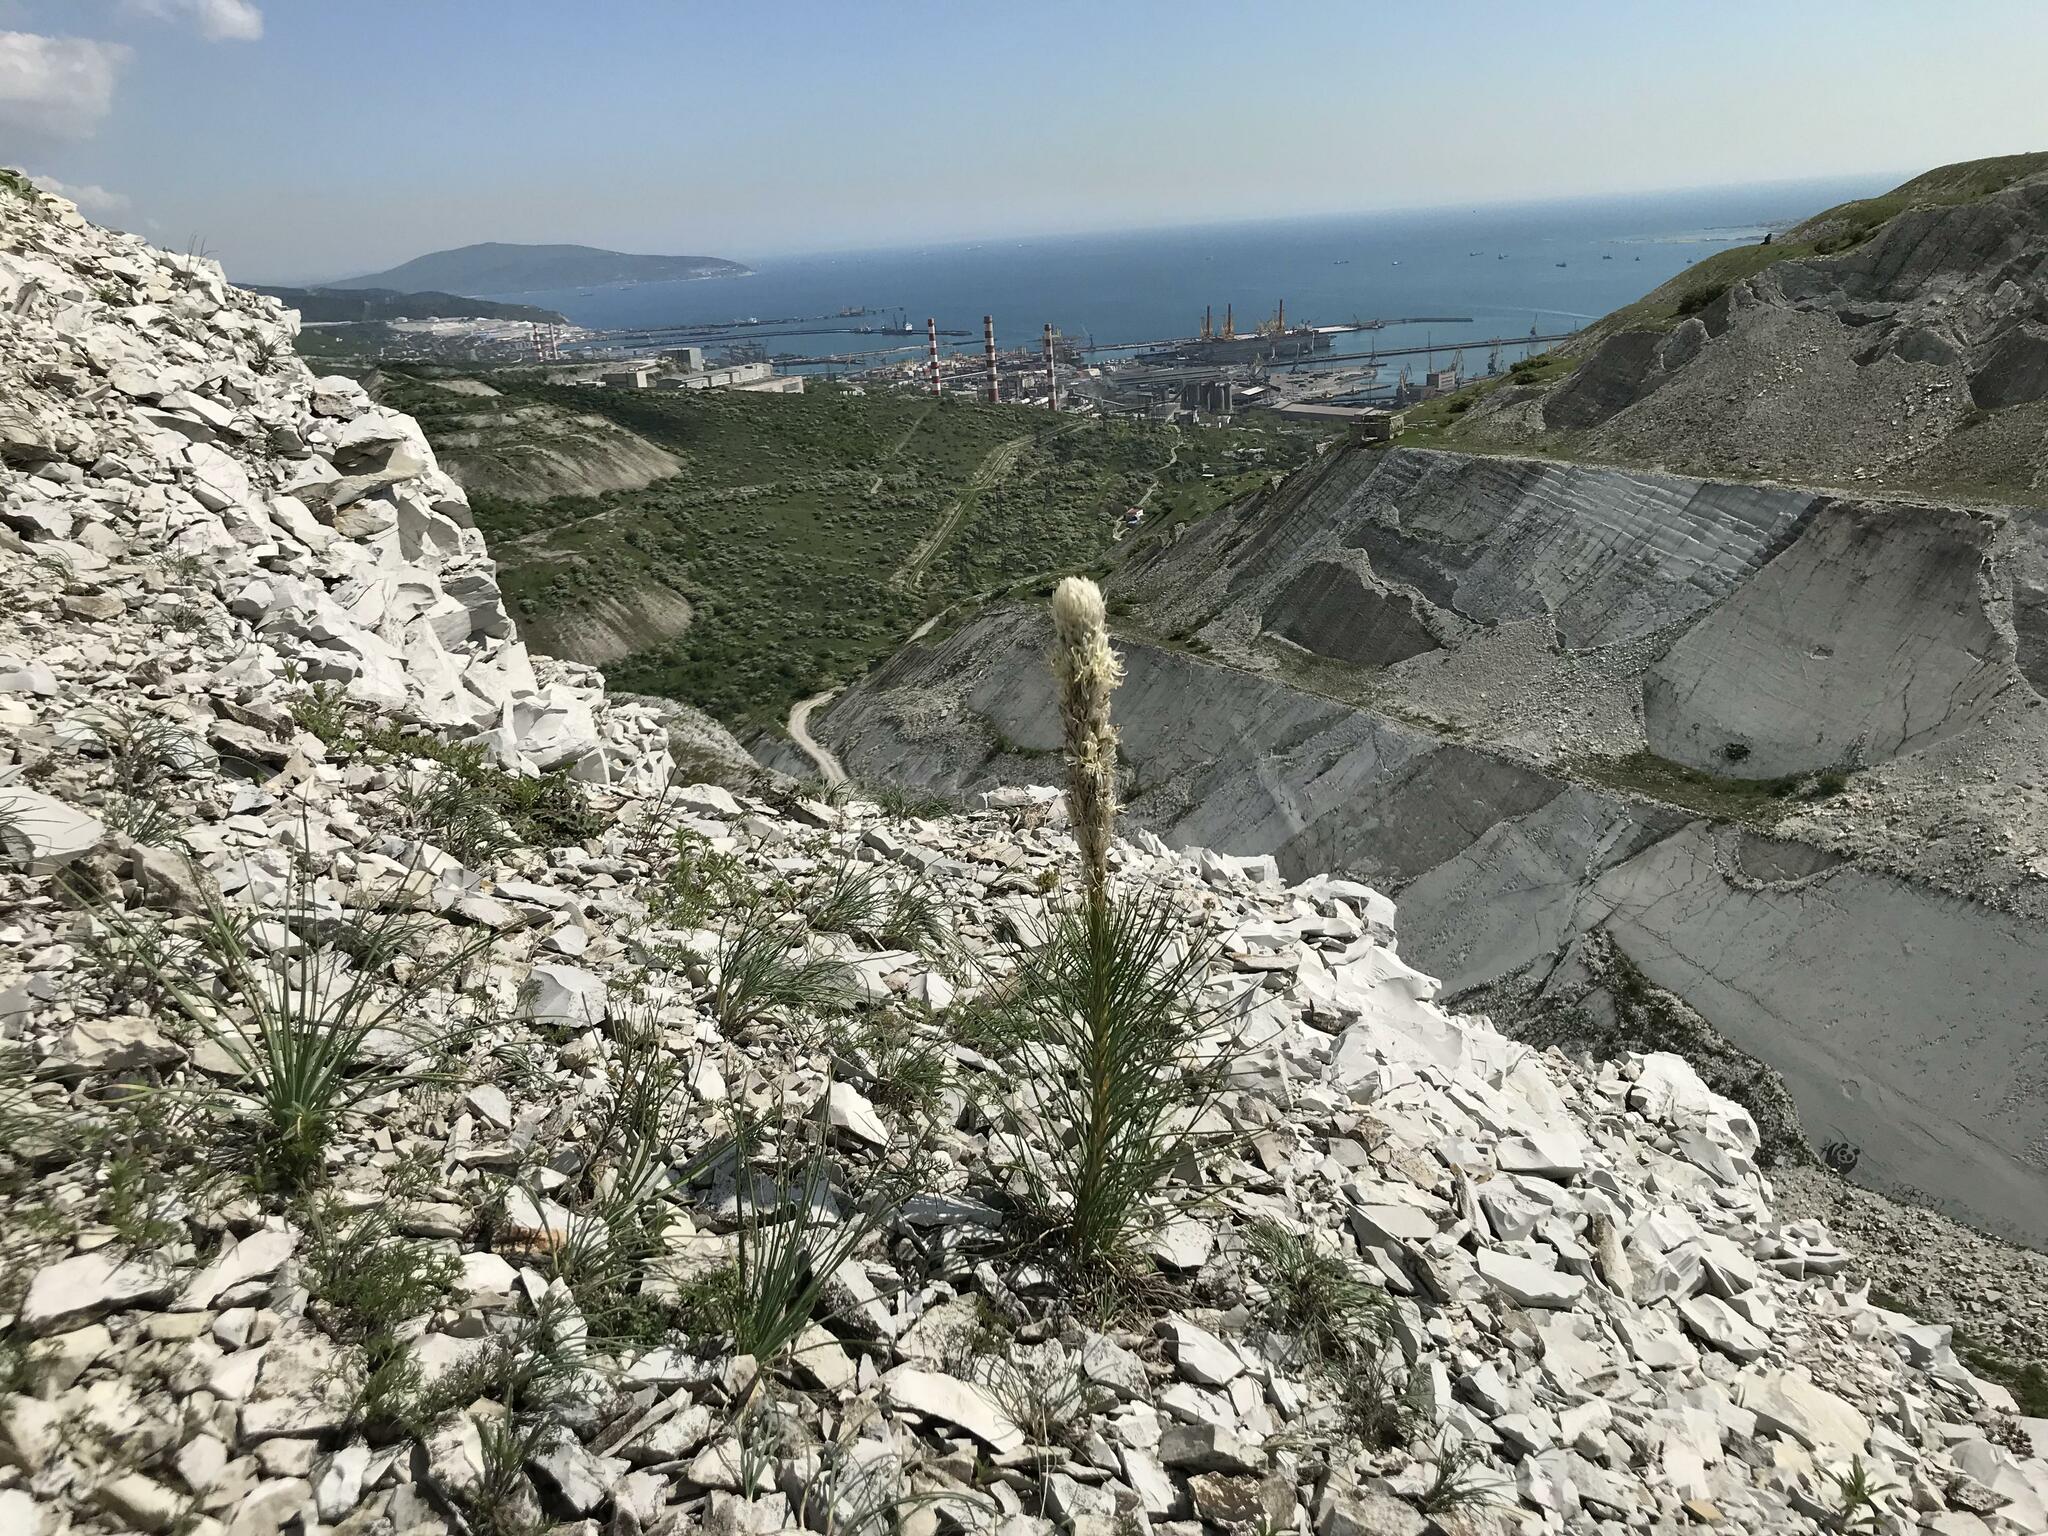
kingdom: Plantae
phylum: Tracheophyta
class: Liliopsida
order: Asparagales
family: Asphodelaceae
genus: Asphodeline
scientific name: Asphodeline taurica
